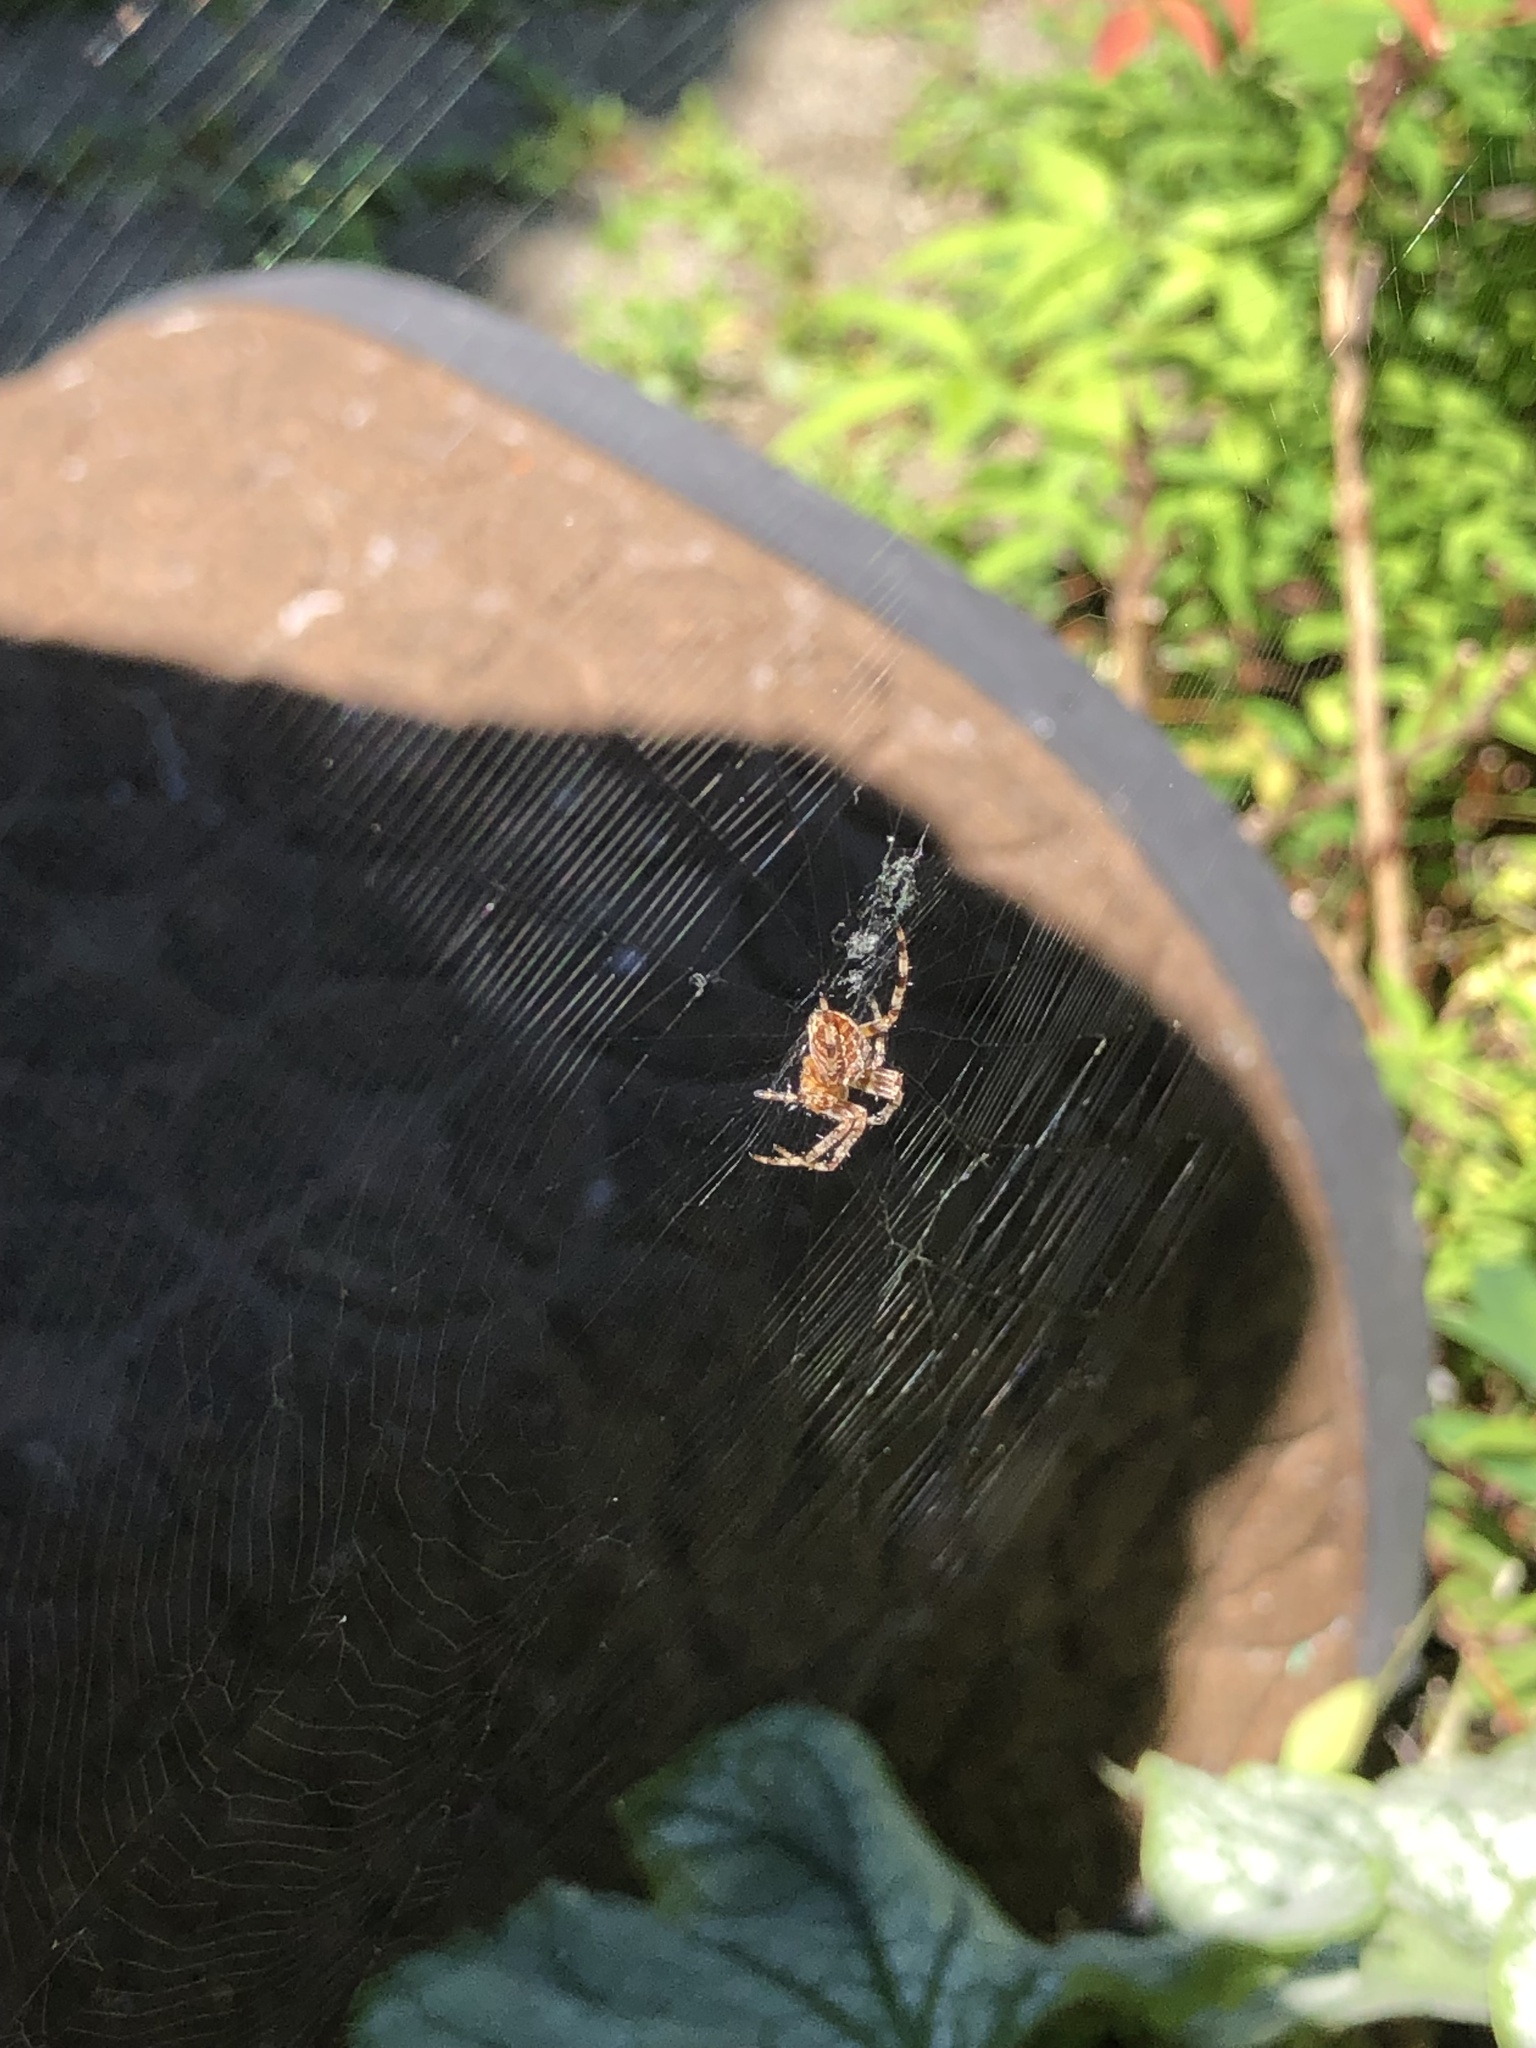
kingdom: Animalia
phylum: Arthropoda
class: Arachnida
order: Araneae
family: Araneidae
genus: Araneus
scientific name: Araneus diadematus
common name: Cross orbweaver
